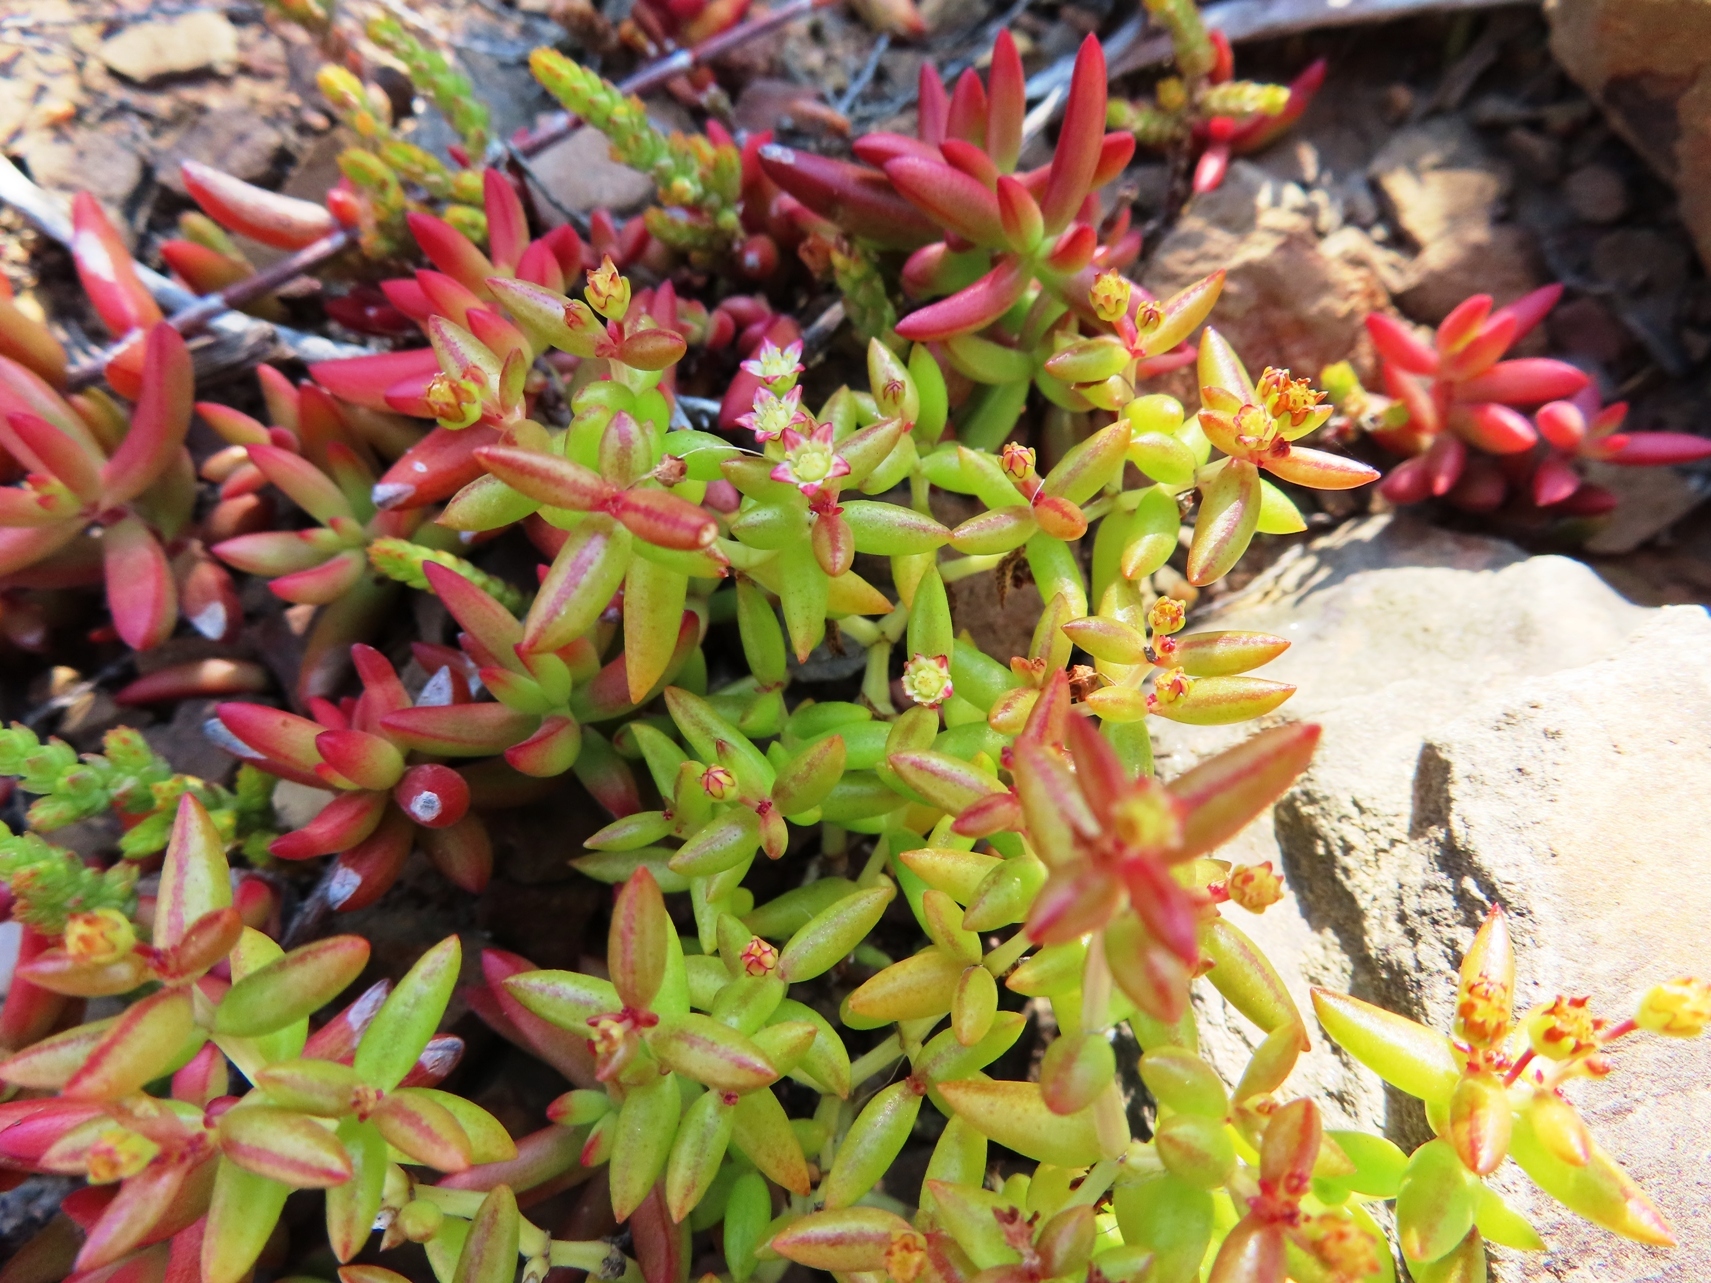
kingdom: Plantae
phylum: Tracheophyta
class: Magnoliopsida
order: Saxifragales
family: Crassulaceae
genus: Crassula
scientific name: Crassula expansa
